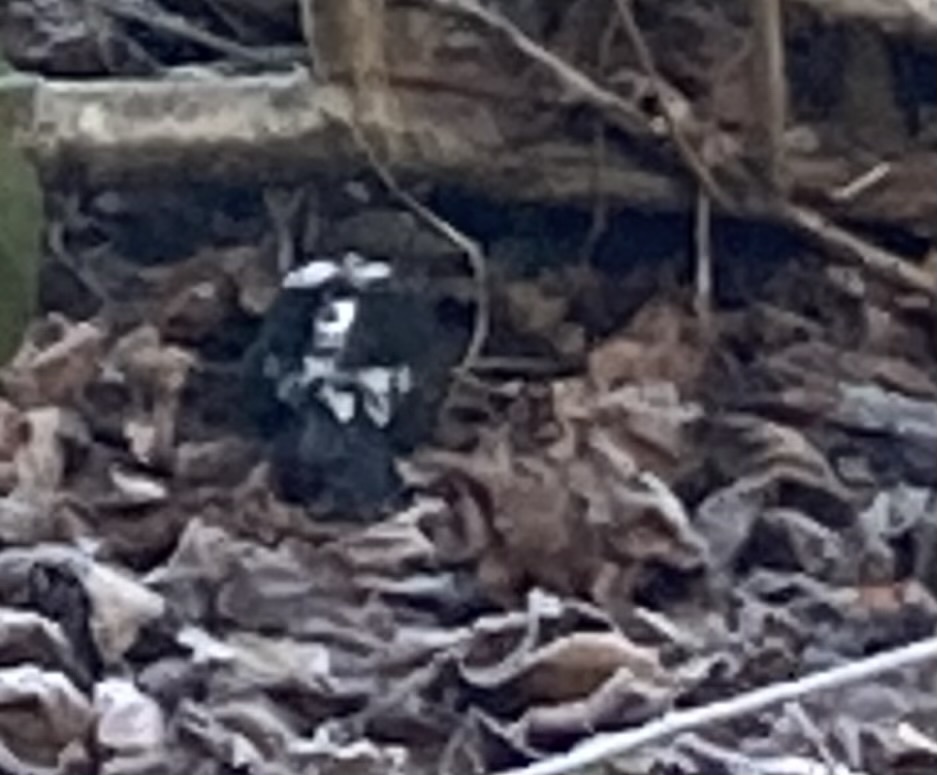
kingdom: Animalia
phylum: Chordata
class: Aves
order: Passeriformes
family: Turdidae
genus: Turdus
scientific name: Turdus merula
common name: Common blackbird
